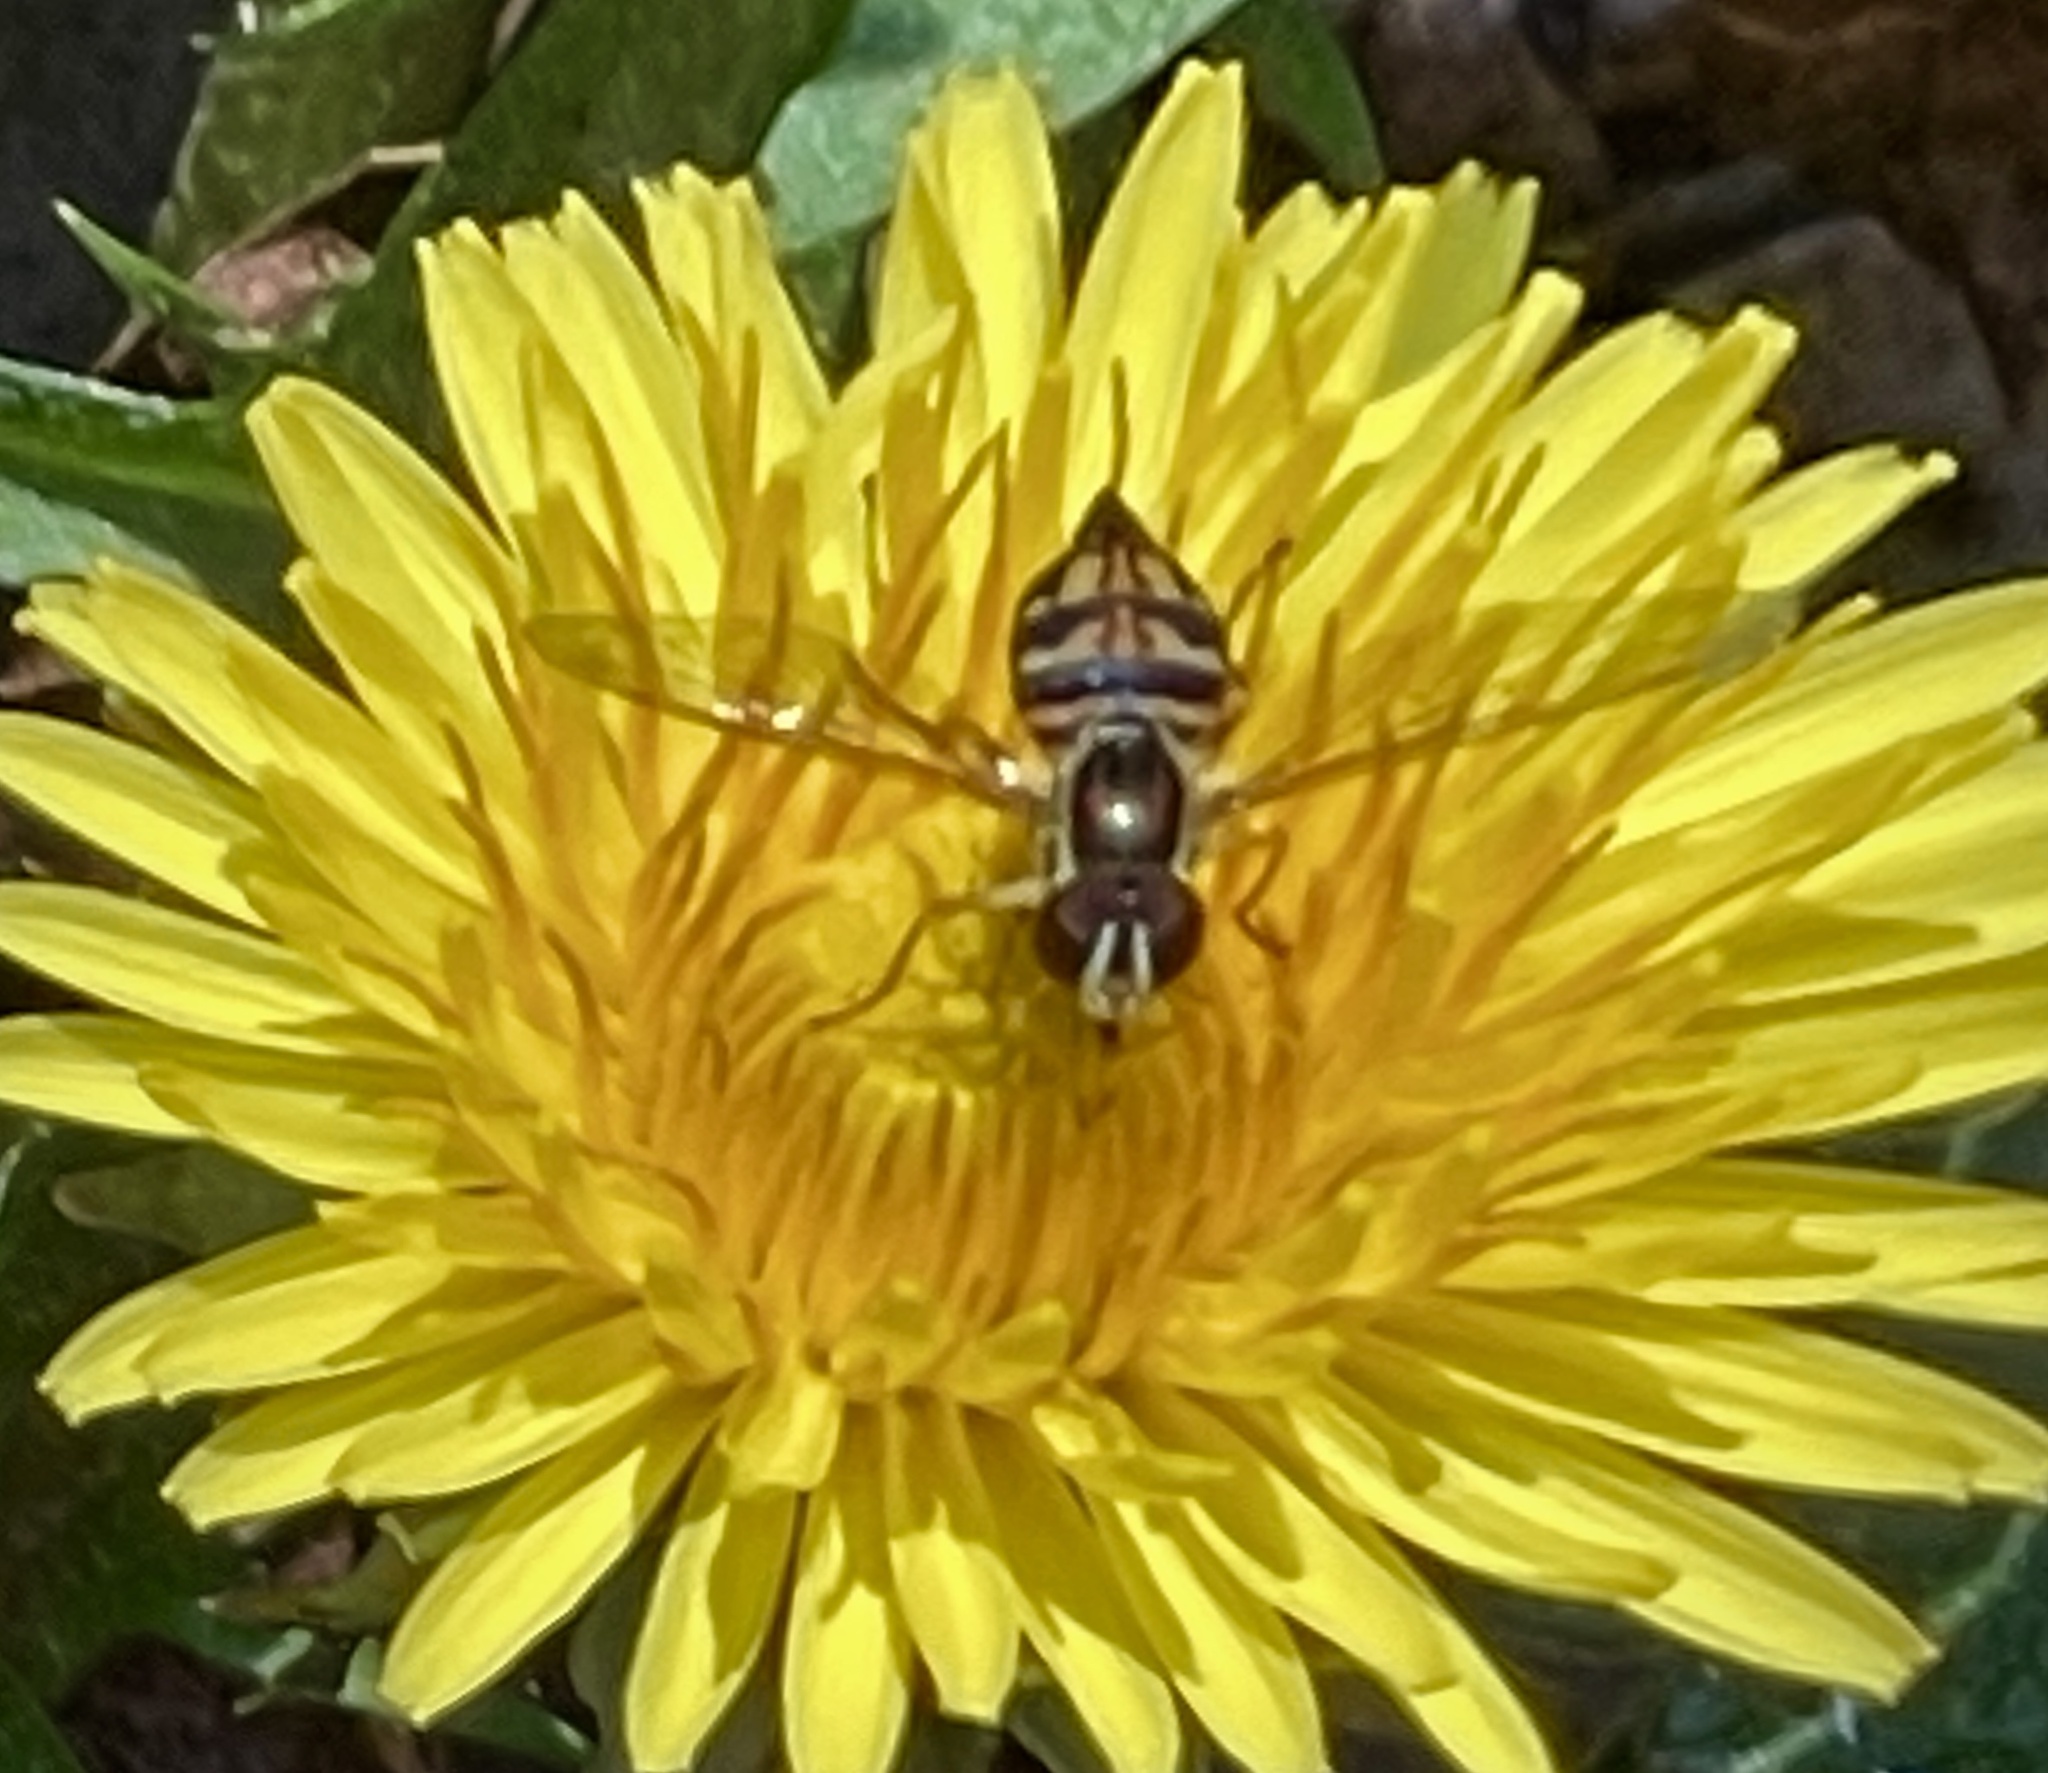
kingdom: Animalia
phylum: Arthropoda
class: Insecta
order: Diptera
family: Syrphidae
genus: Toxomerus
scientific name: Toxomerus geminatus
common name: Eastern calligrapher
